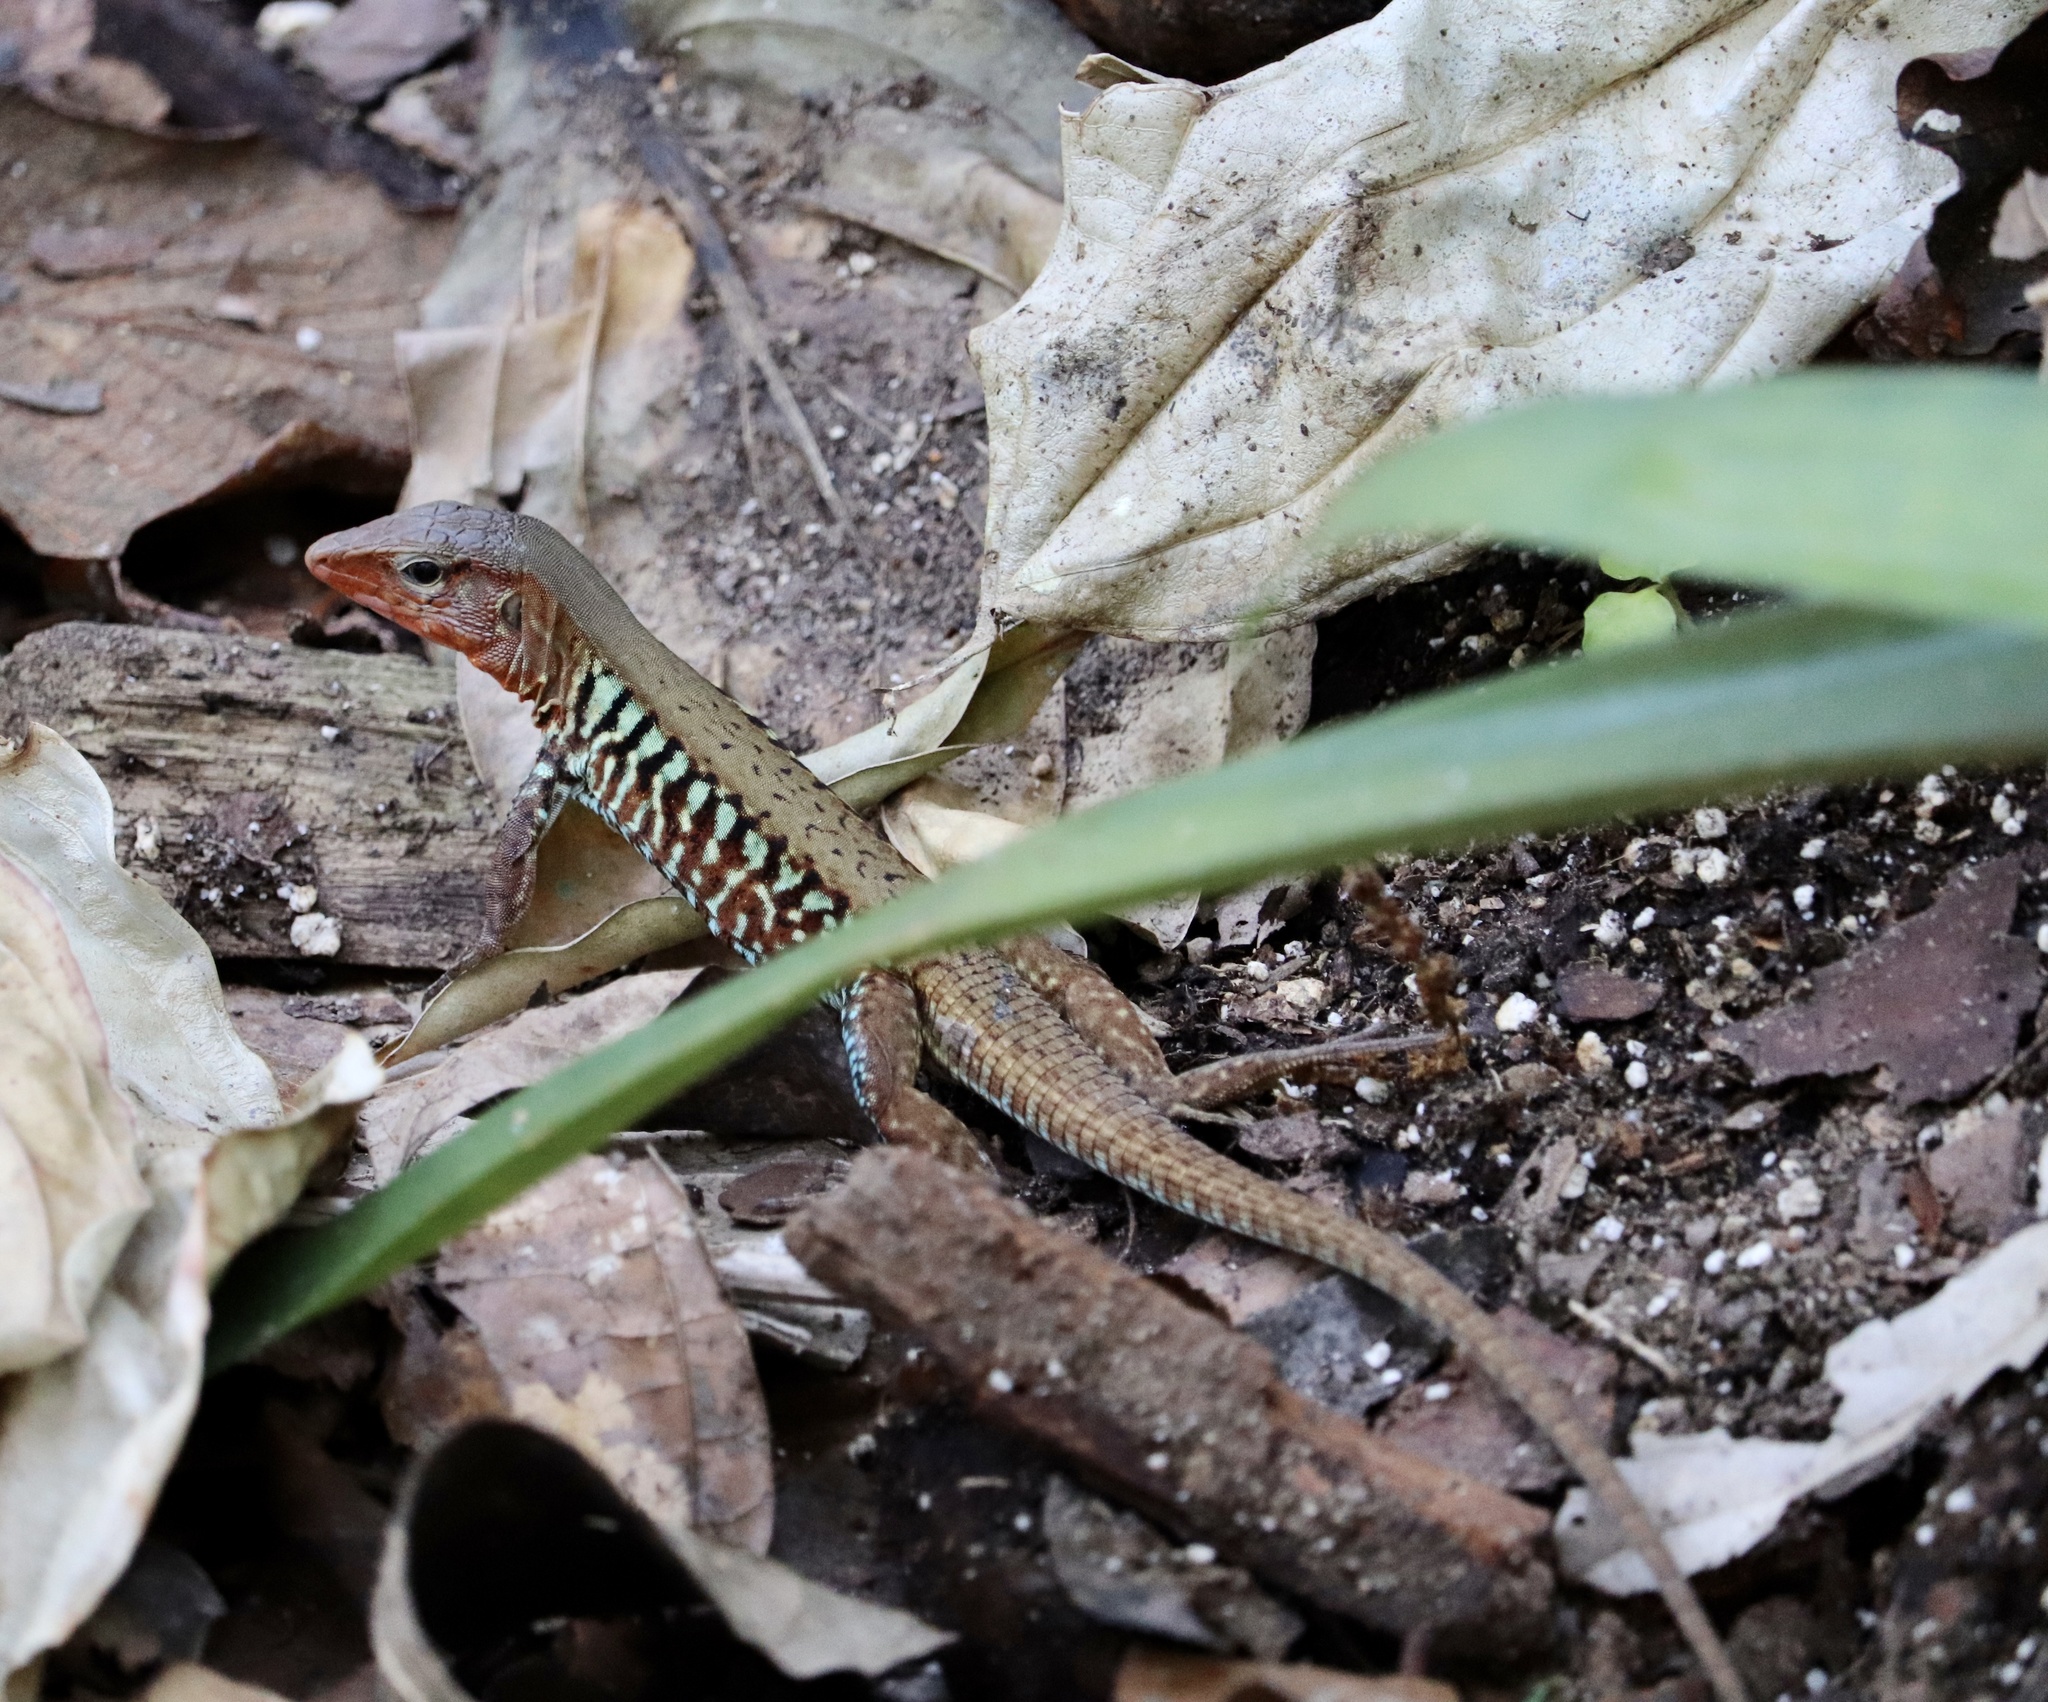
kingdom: Animalia
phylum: Chordata
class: Squamata
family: Teiidae
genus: Holcosus
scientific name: Holcosus undulatus
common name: Rainbow ameiva
